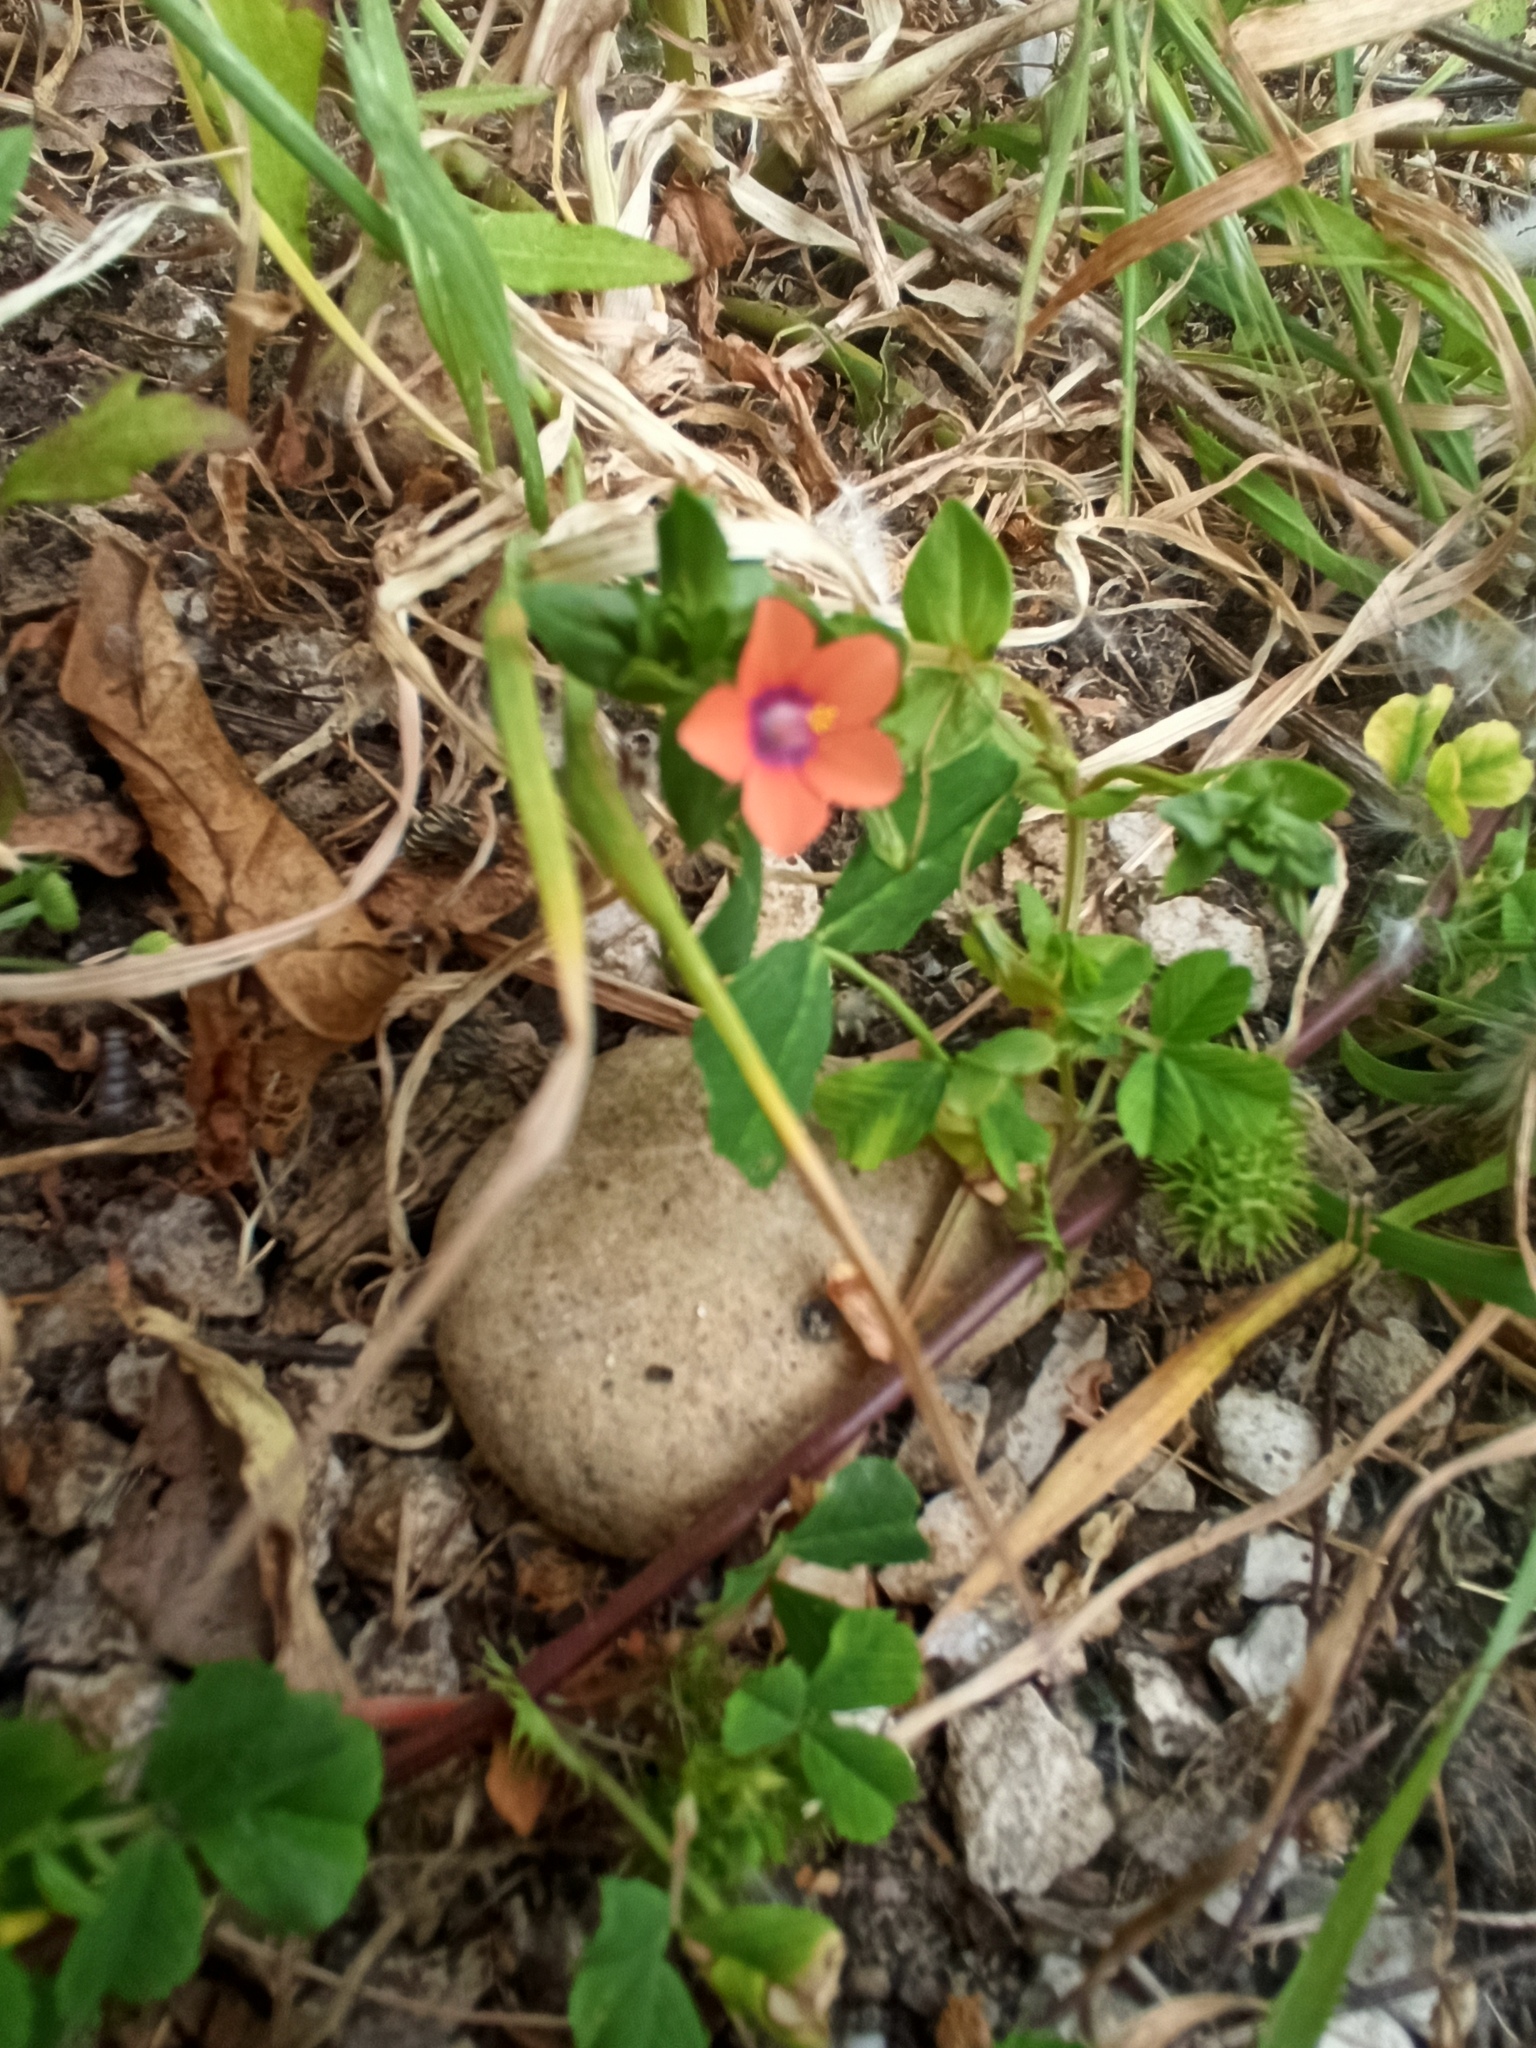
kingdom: Plantae
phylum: Tracheophyta
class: Magnoliopsida
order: Ericales
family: Primulaceae
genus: Lysimachia
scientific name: Lysimachia arvensis
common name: Scarlet pimpernel
